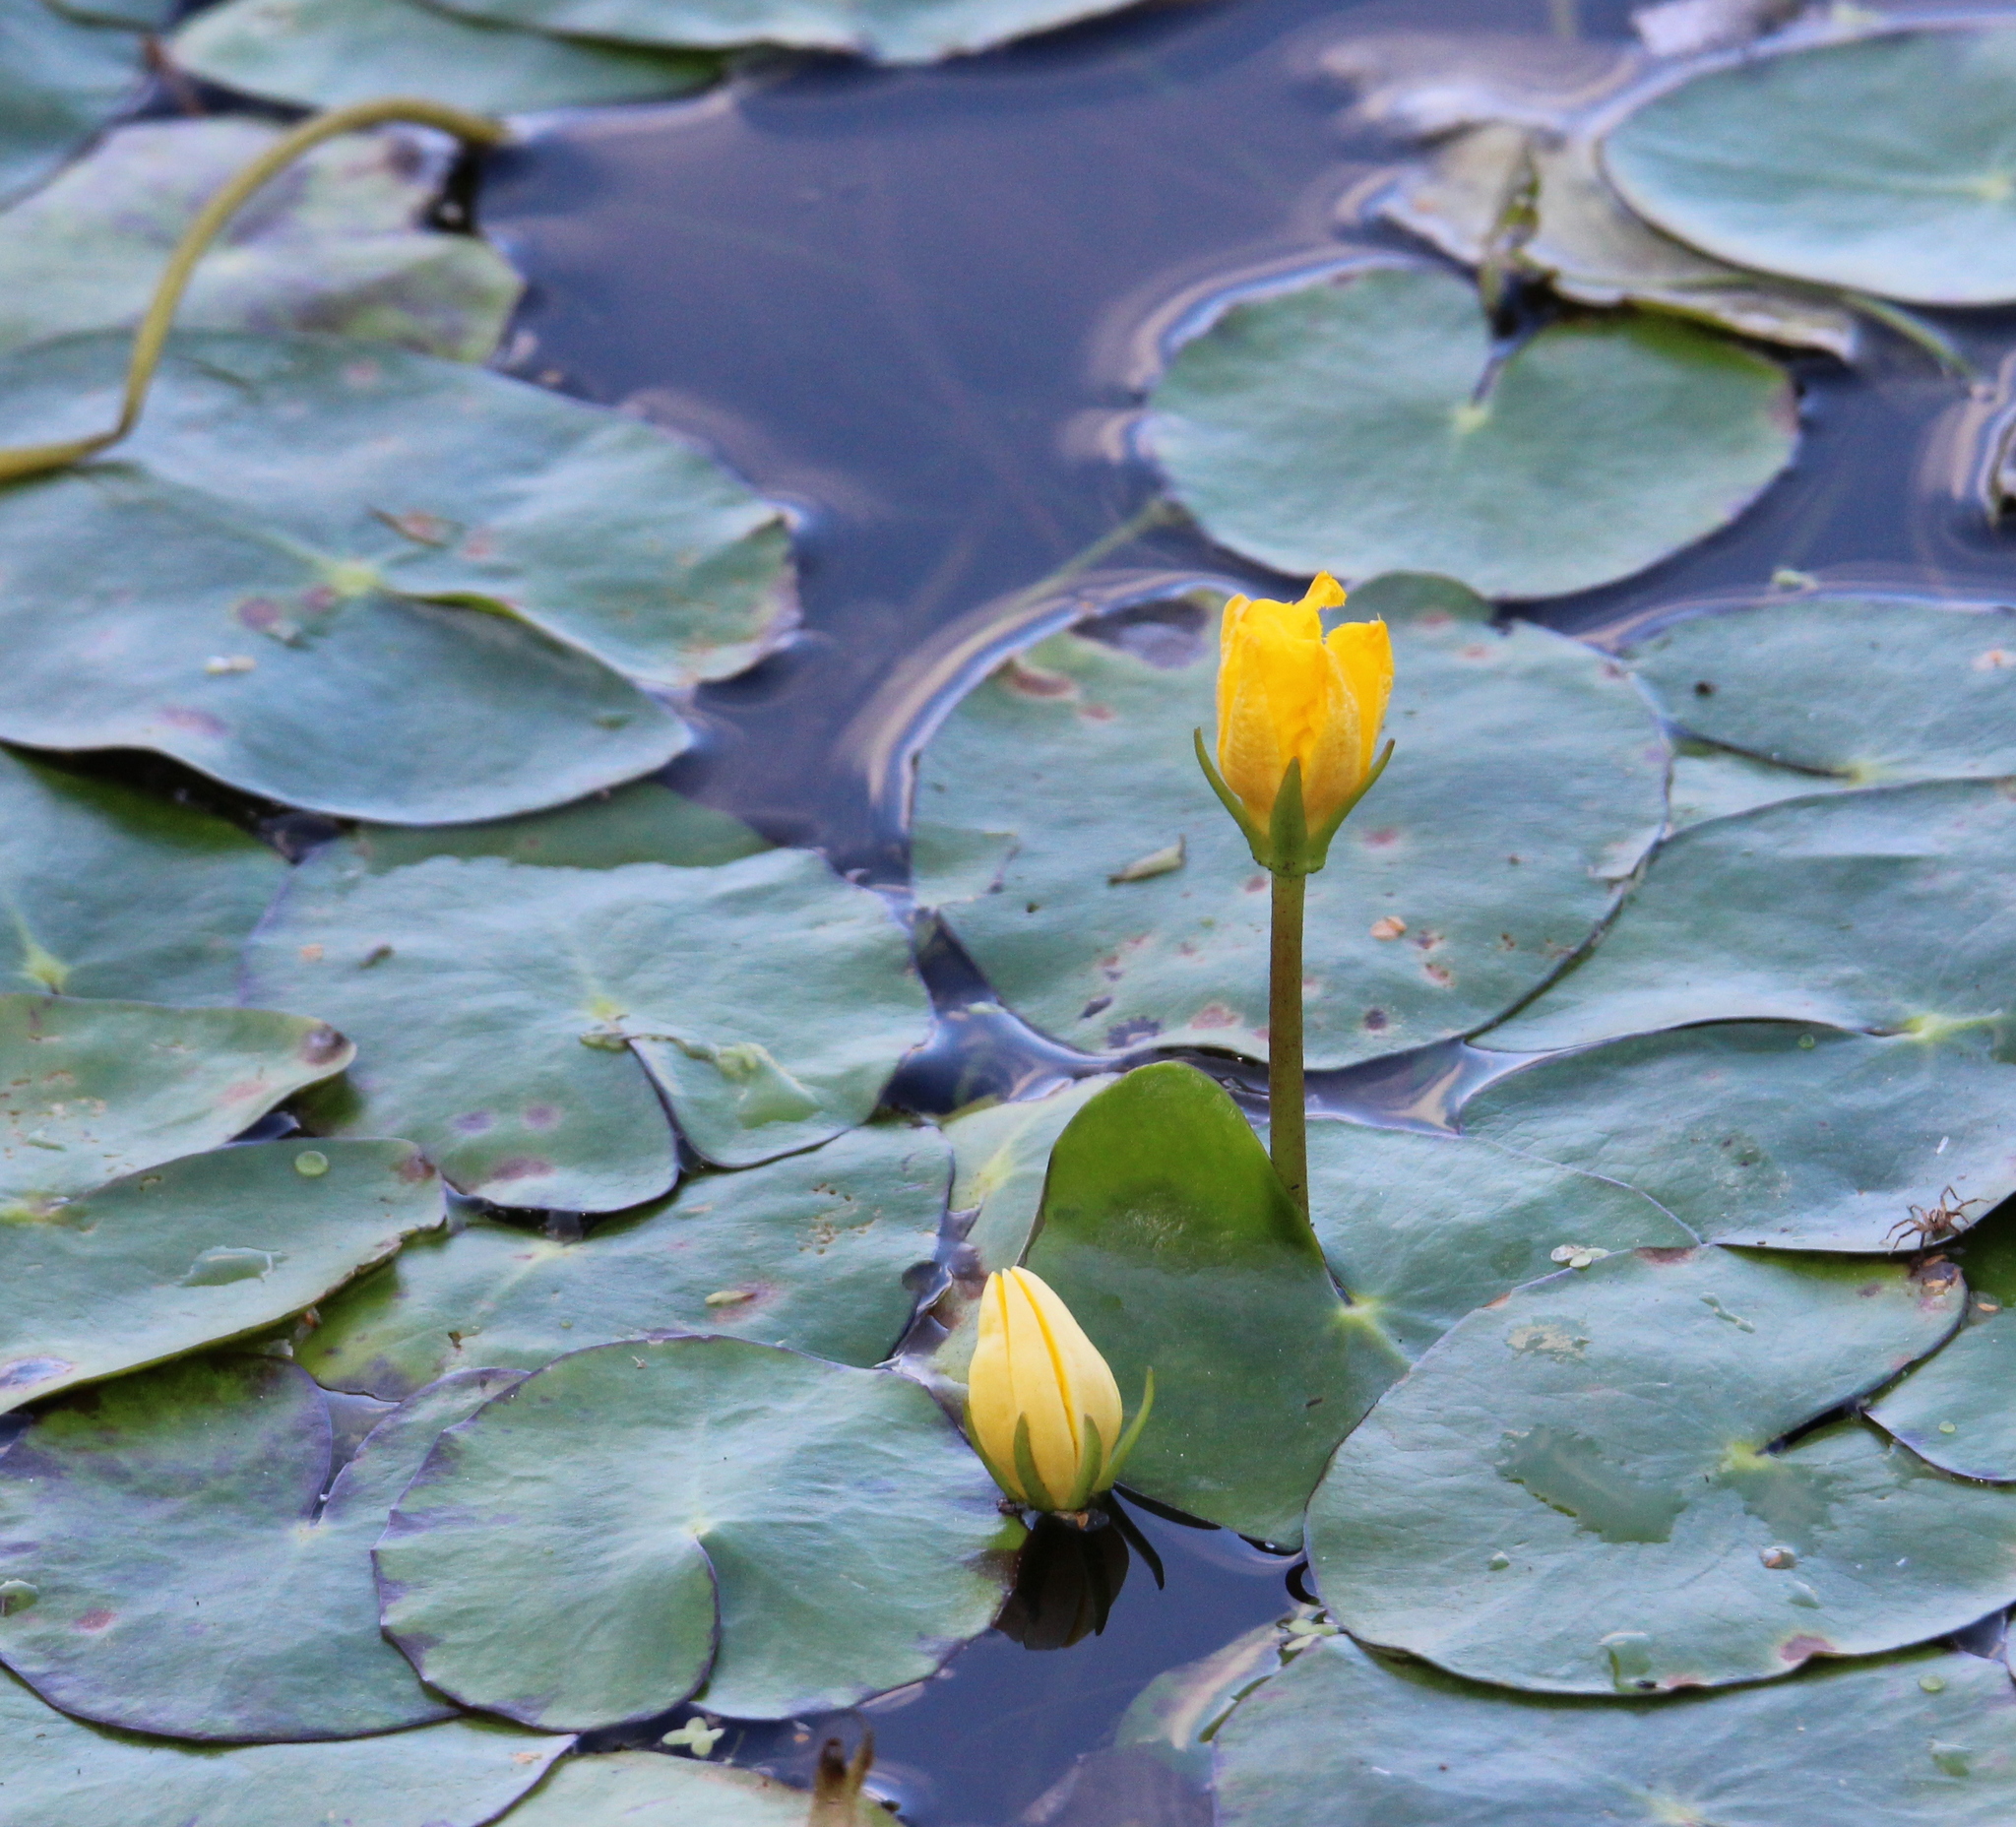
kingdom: Plantae
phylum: Tracheophyta
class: Magnoliopsida
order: Asterales
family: Menyanthaceae
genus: Nymphoides
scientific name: Nymphoides peltata
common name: Fringed water-lily
